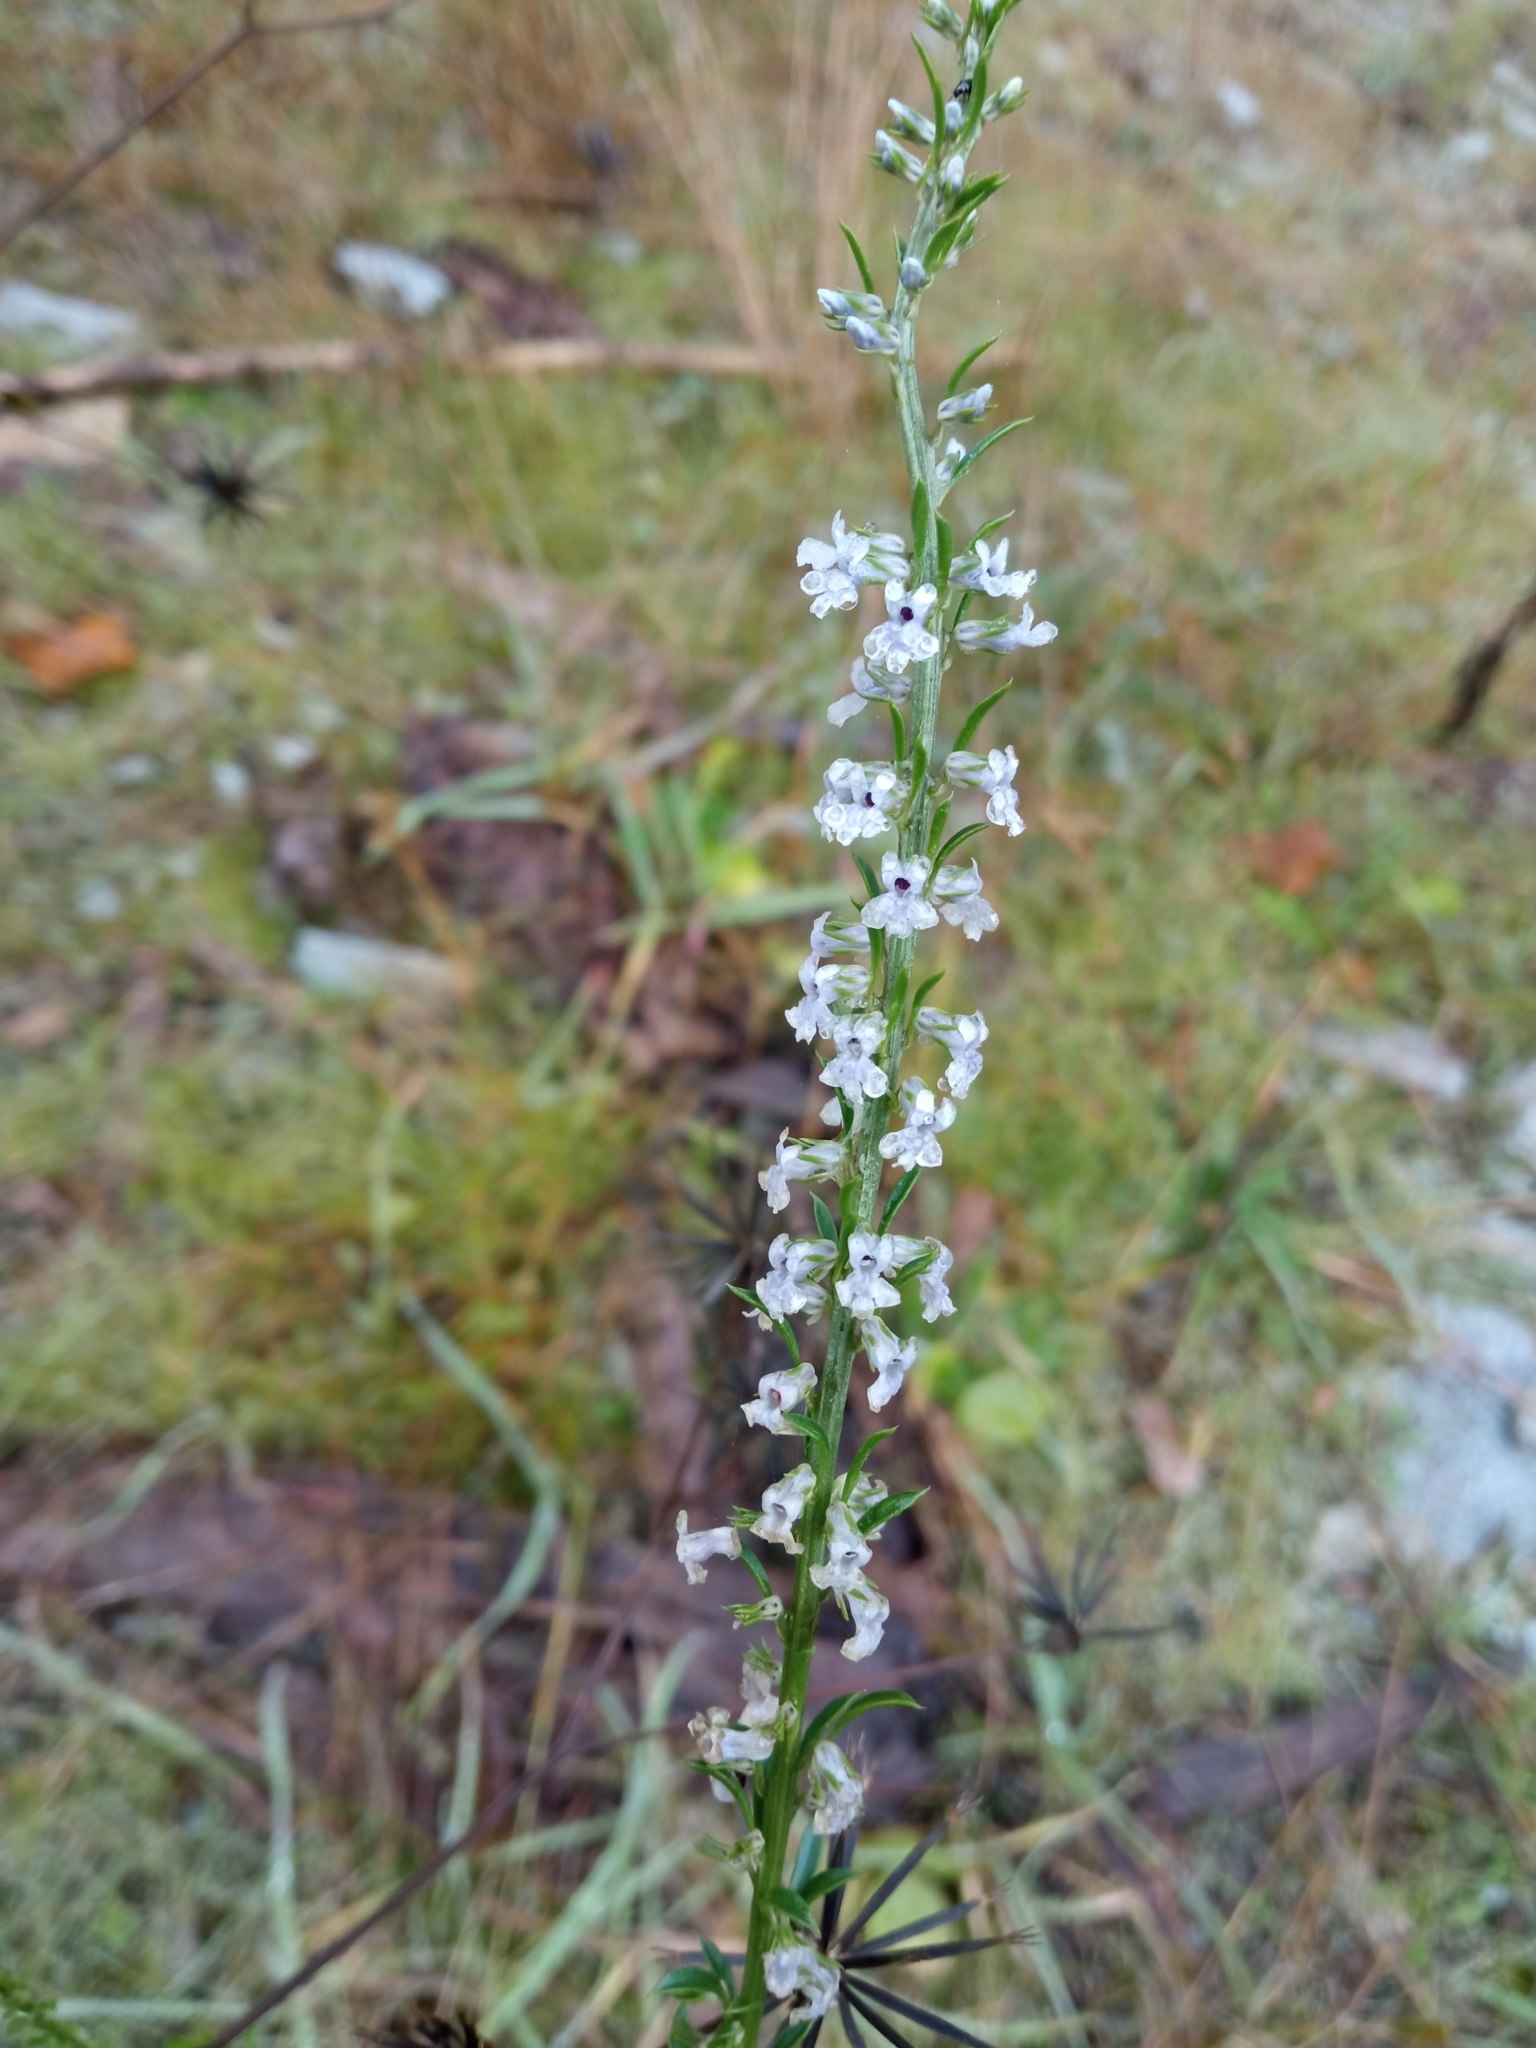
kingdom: Plantae
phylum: Tracheophyta
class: Magnoliopsida
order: Lamiales
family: Plantaginaceae
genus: Anarrhinum
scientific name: Anarrhinum bellidifolium
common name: Daisy-leaved toadflax
